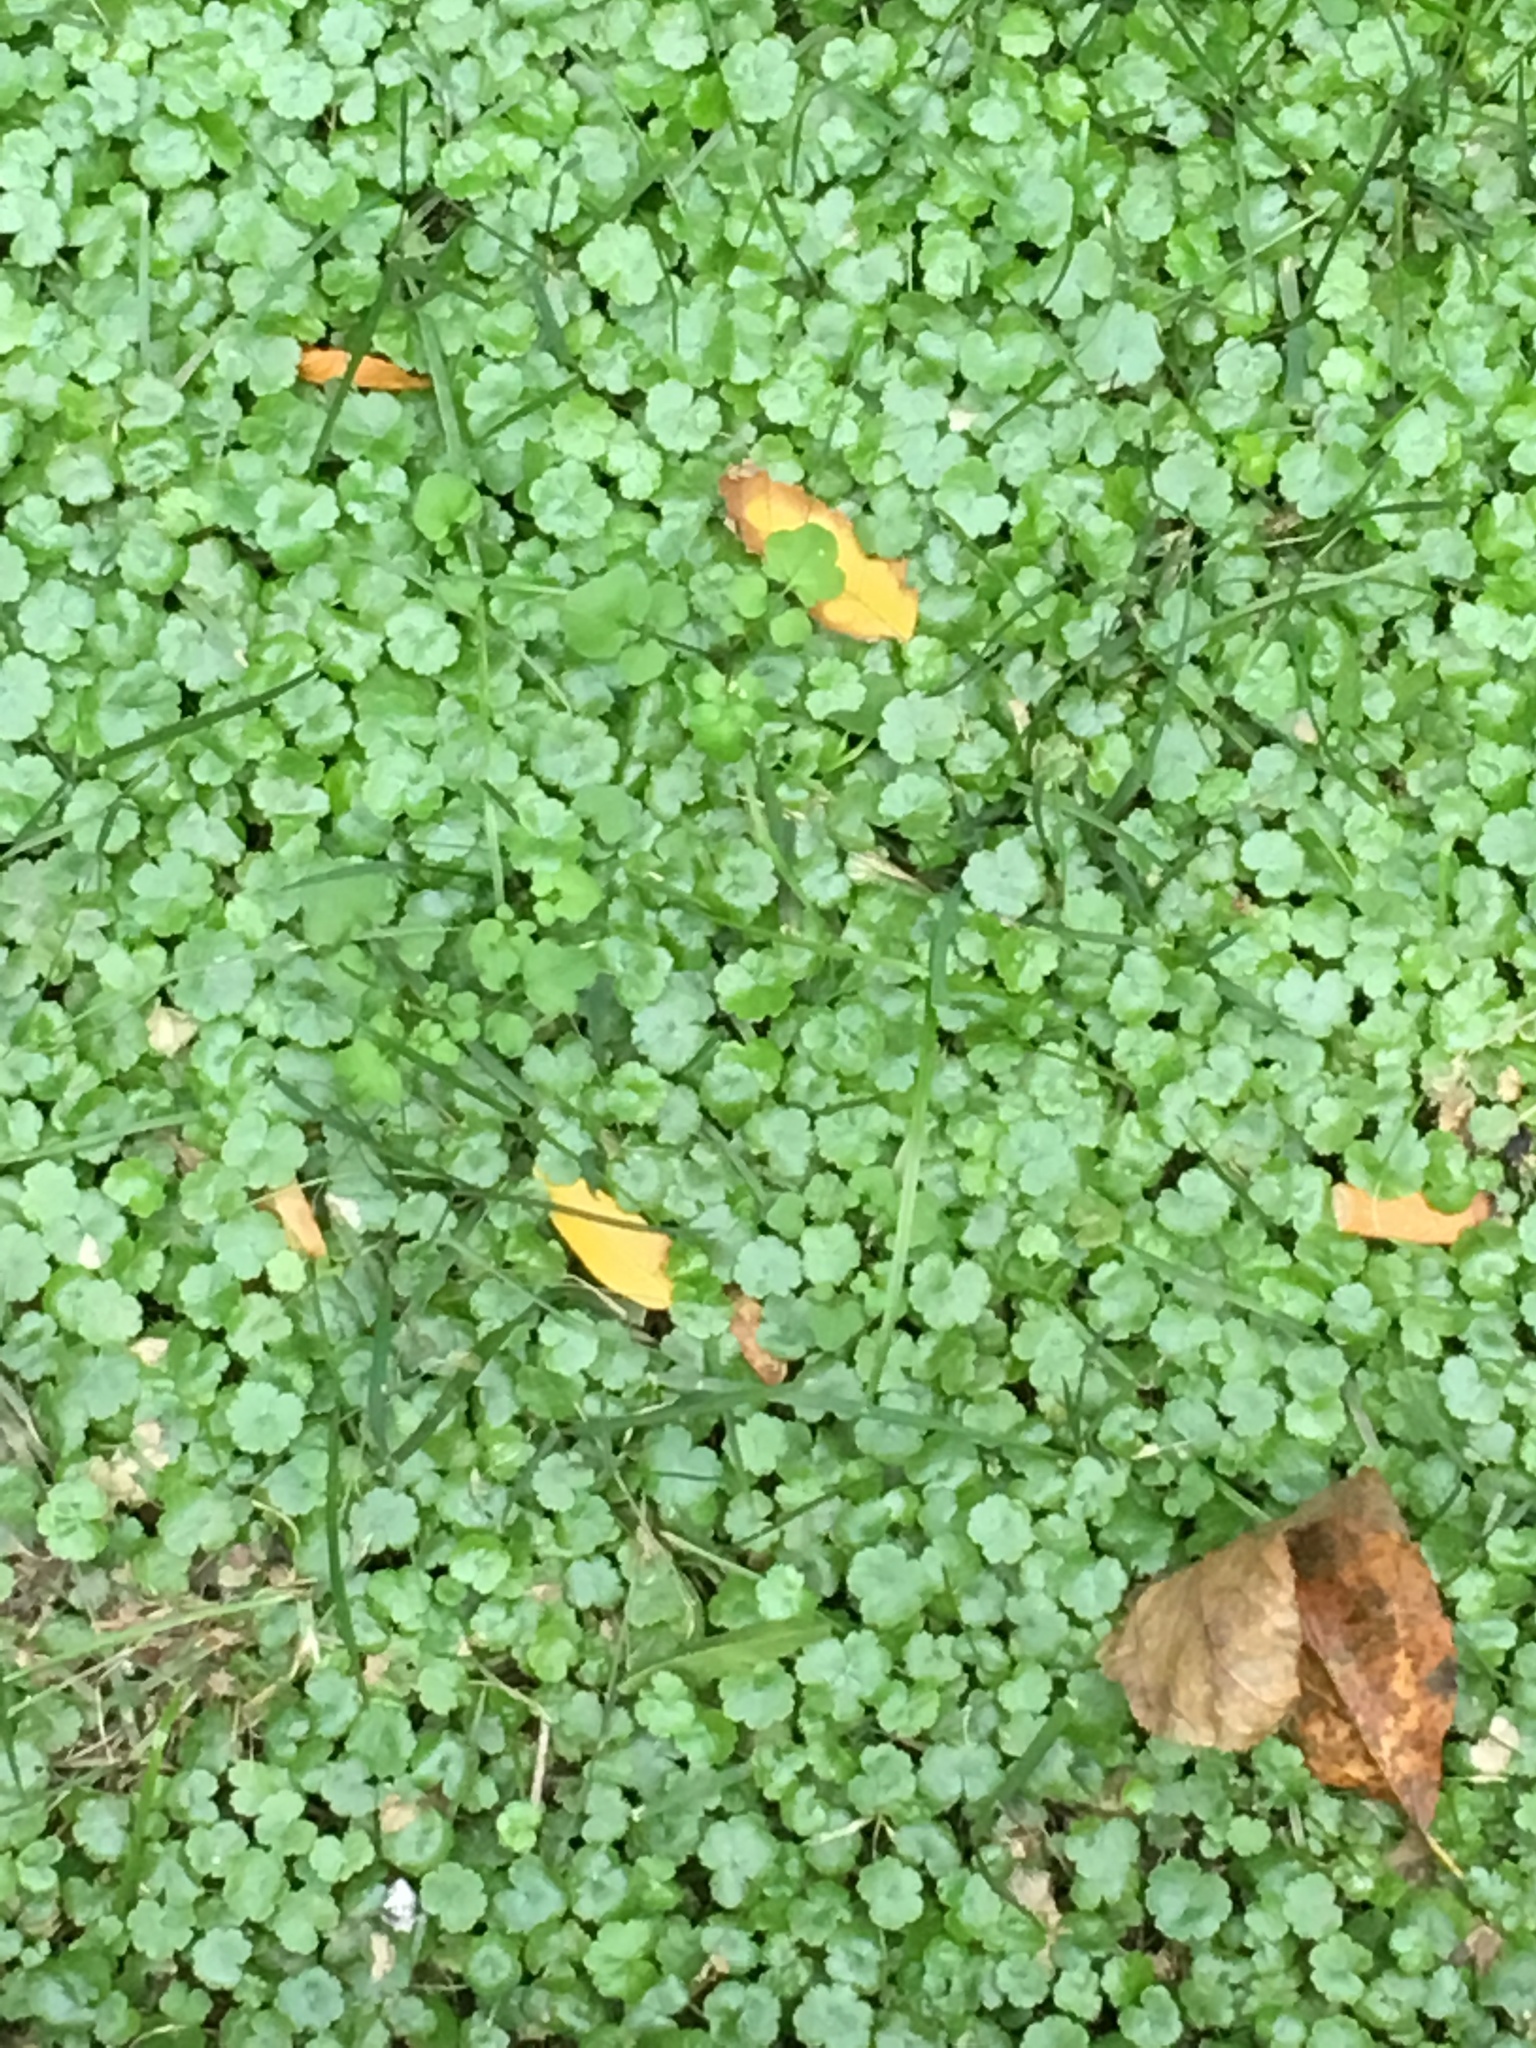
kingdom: Plantae
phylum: Tracheophyta
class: Magnoliopsida
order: Apiales
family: Araliaceae
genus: Hydrocotyle
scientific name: Hydrocotyle sibthorpioides
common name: Lawn marshpennywort
